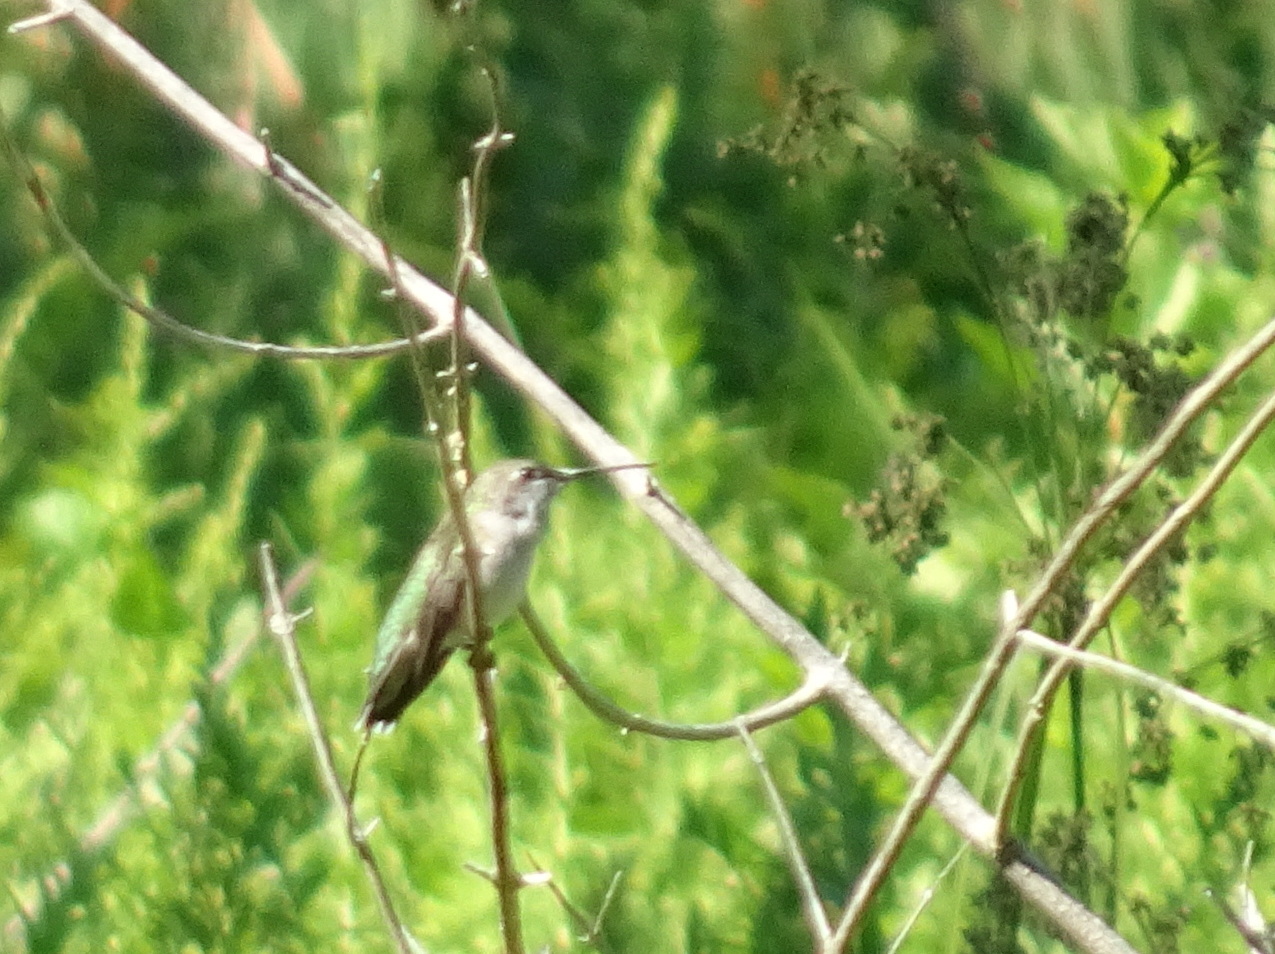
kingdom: Animalia
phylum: Chordata
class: Aves
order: Apodiformes
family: Trochilidae
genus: Archilochus
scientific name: Archilochus colubris
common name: Ruby-throated hummingbird
